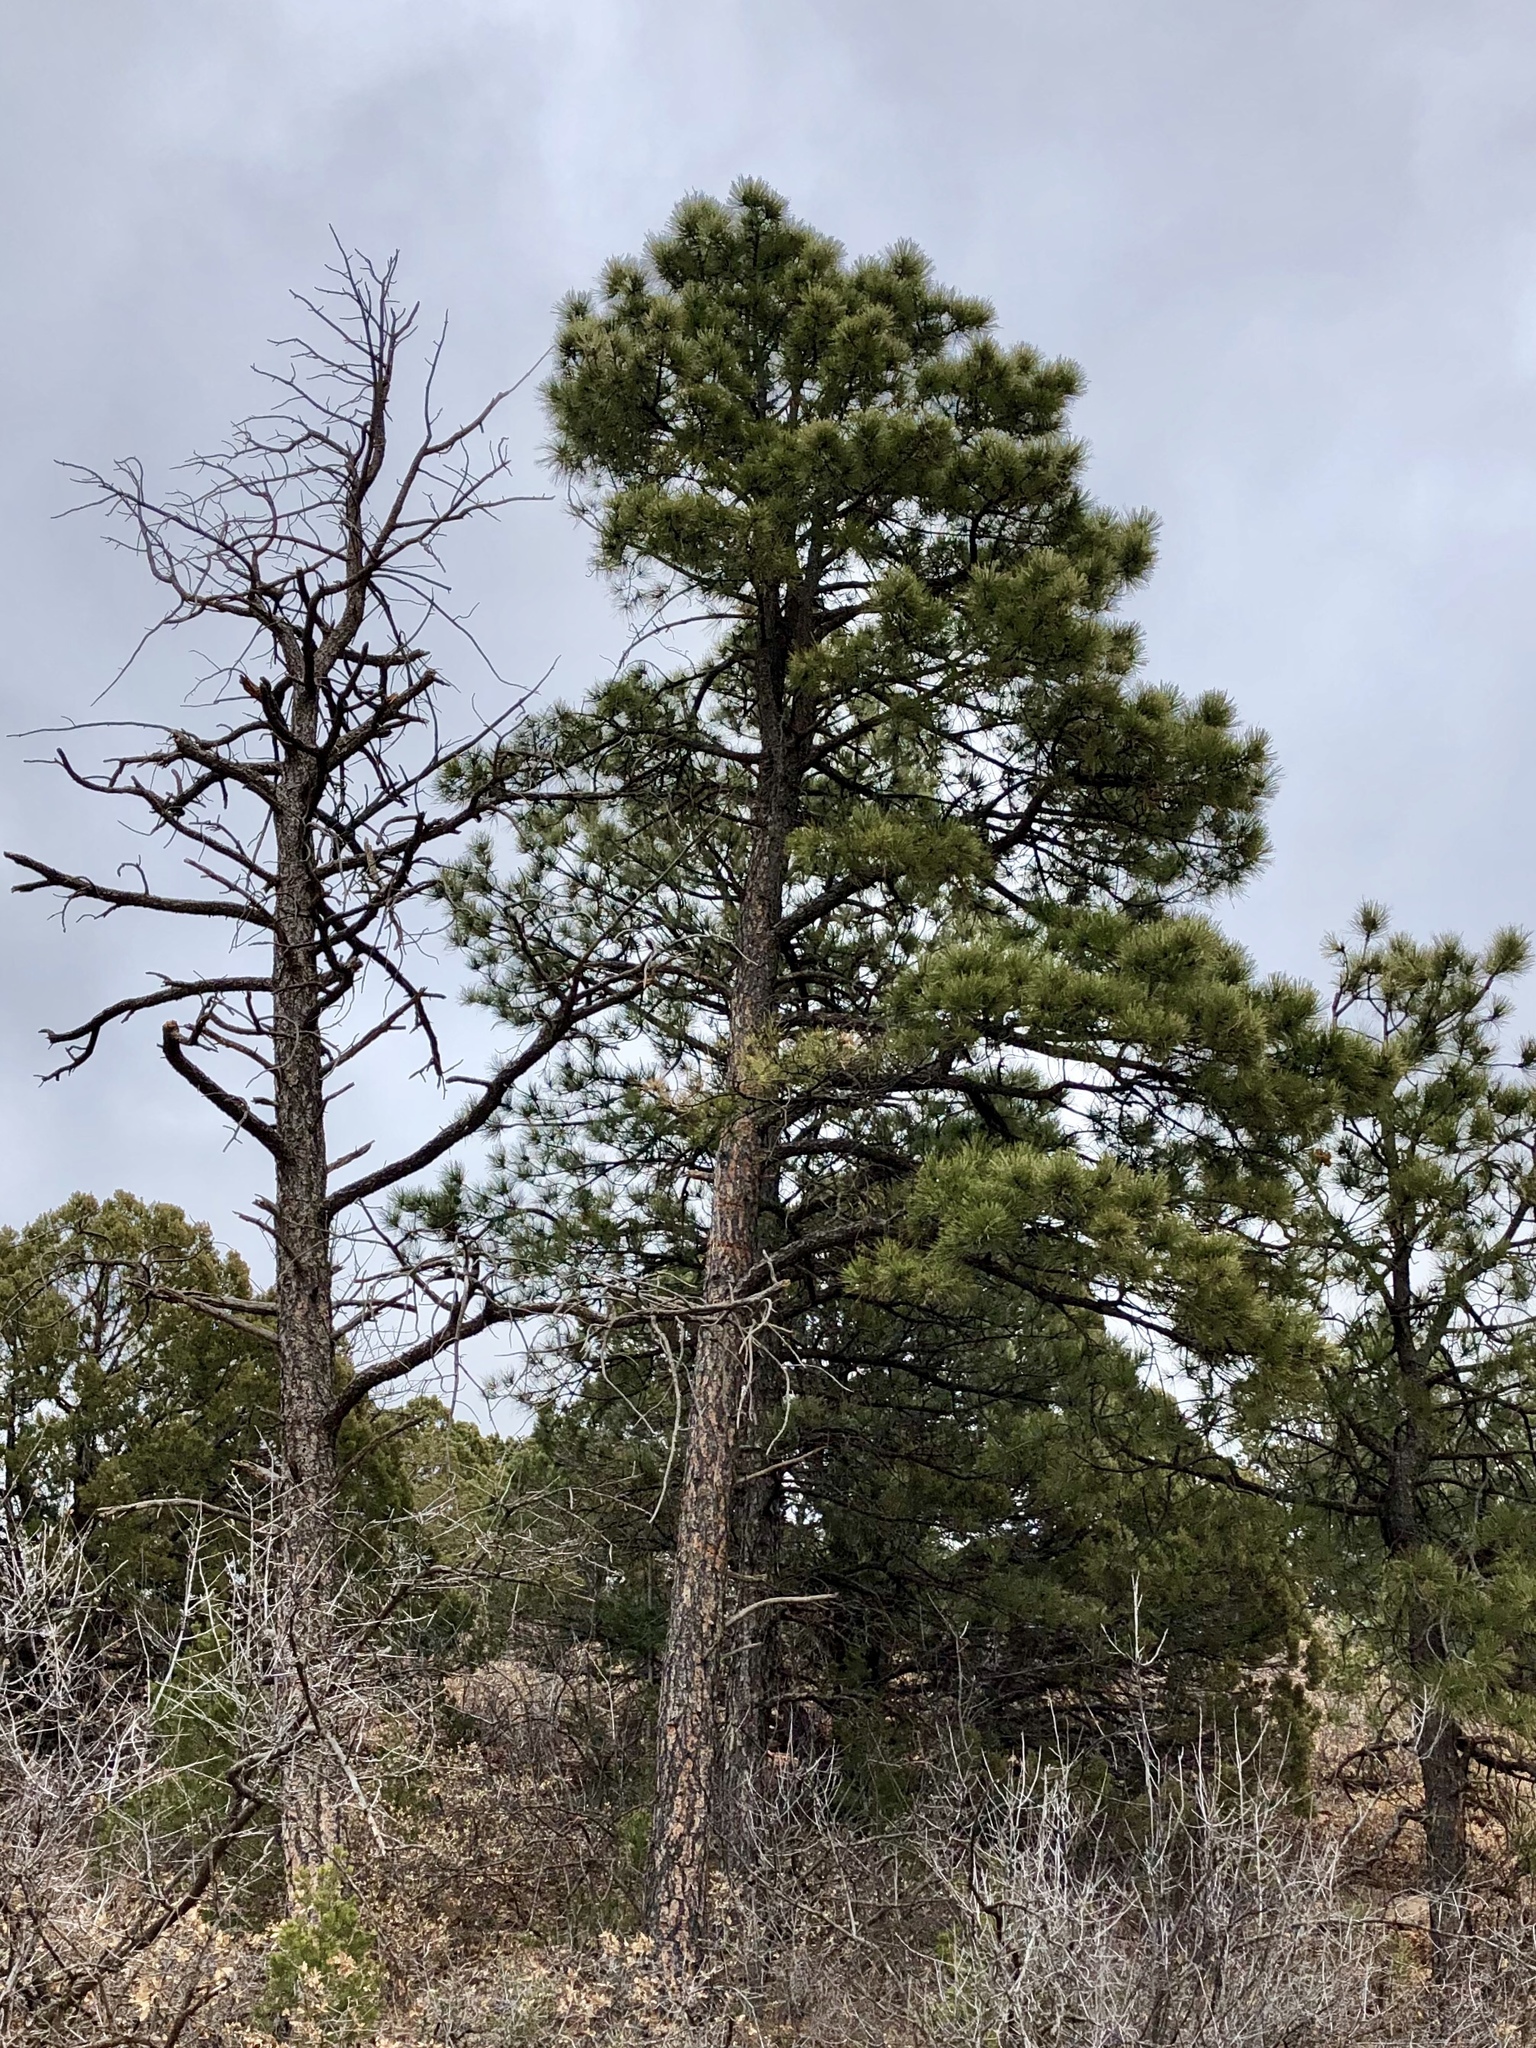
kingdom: Plantae
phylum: Tracheophyta
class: Pinopsida
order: Pinales
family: Pinaceae
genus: Pinus
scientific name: Pinus ponderosa
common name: Western yellow-pine
